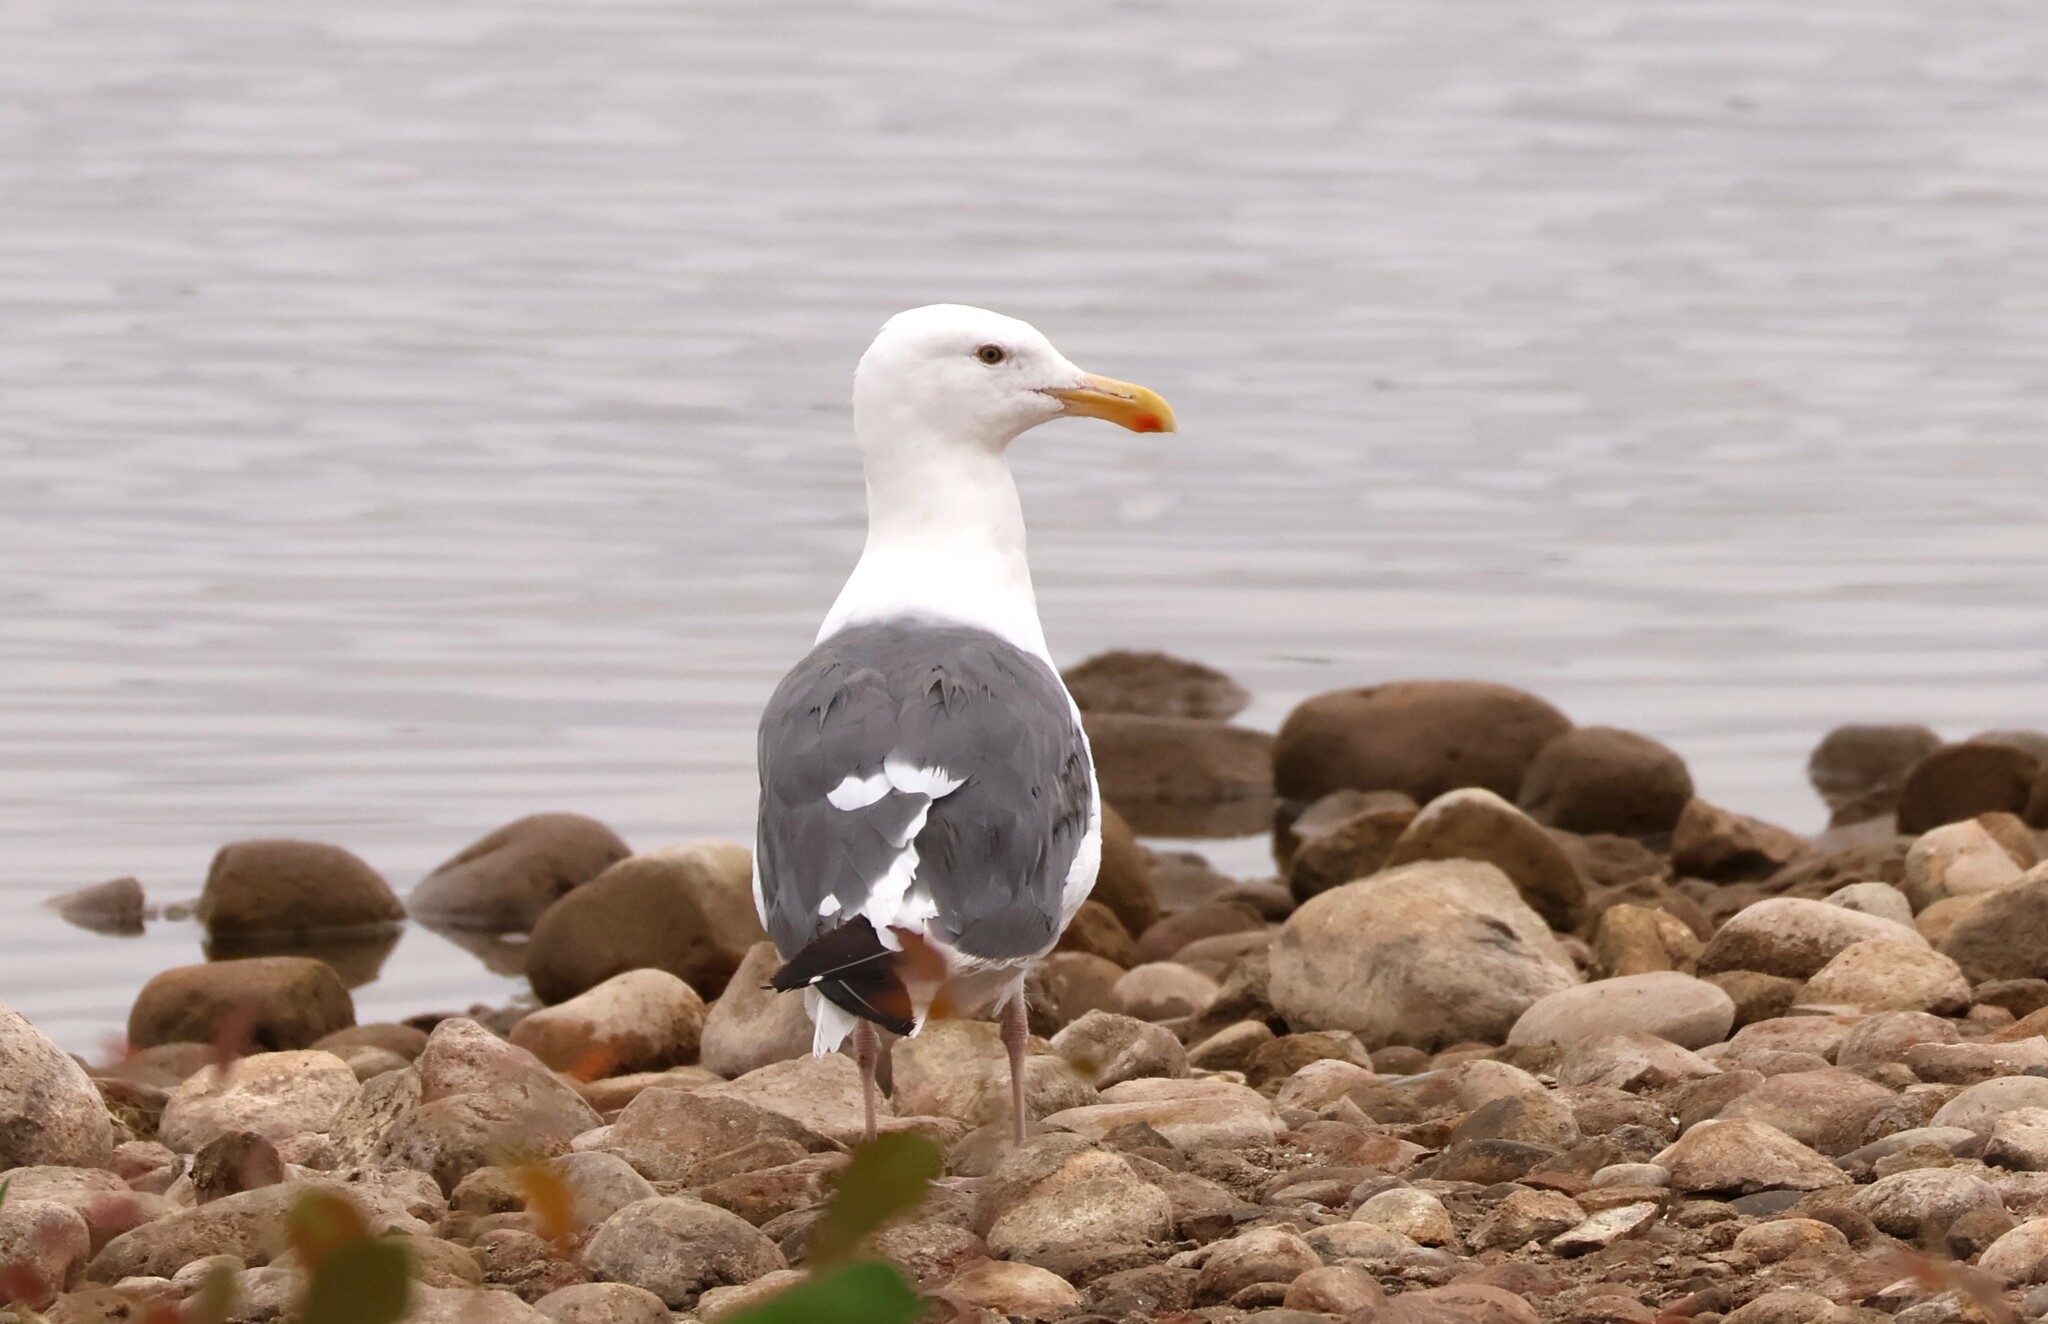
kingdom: Animalia
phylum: Chordata
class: Aves
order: Charadriiformes
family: Laridae
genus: Larus
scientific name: Larus occidentalis
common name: Western gull
